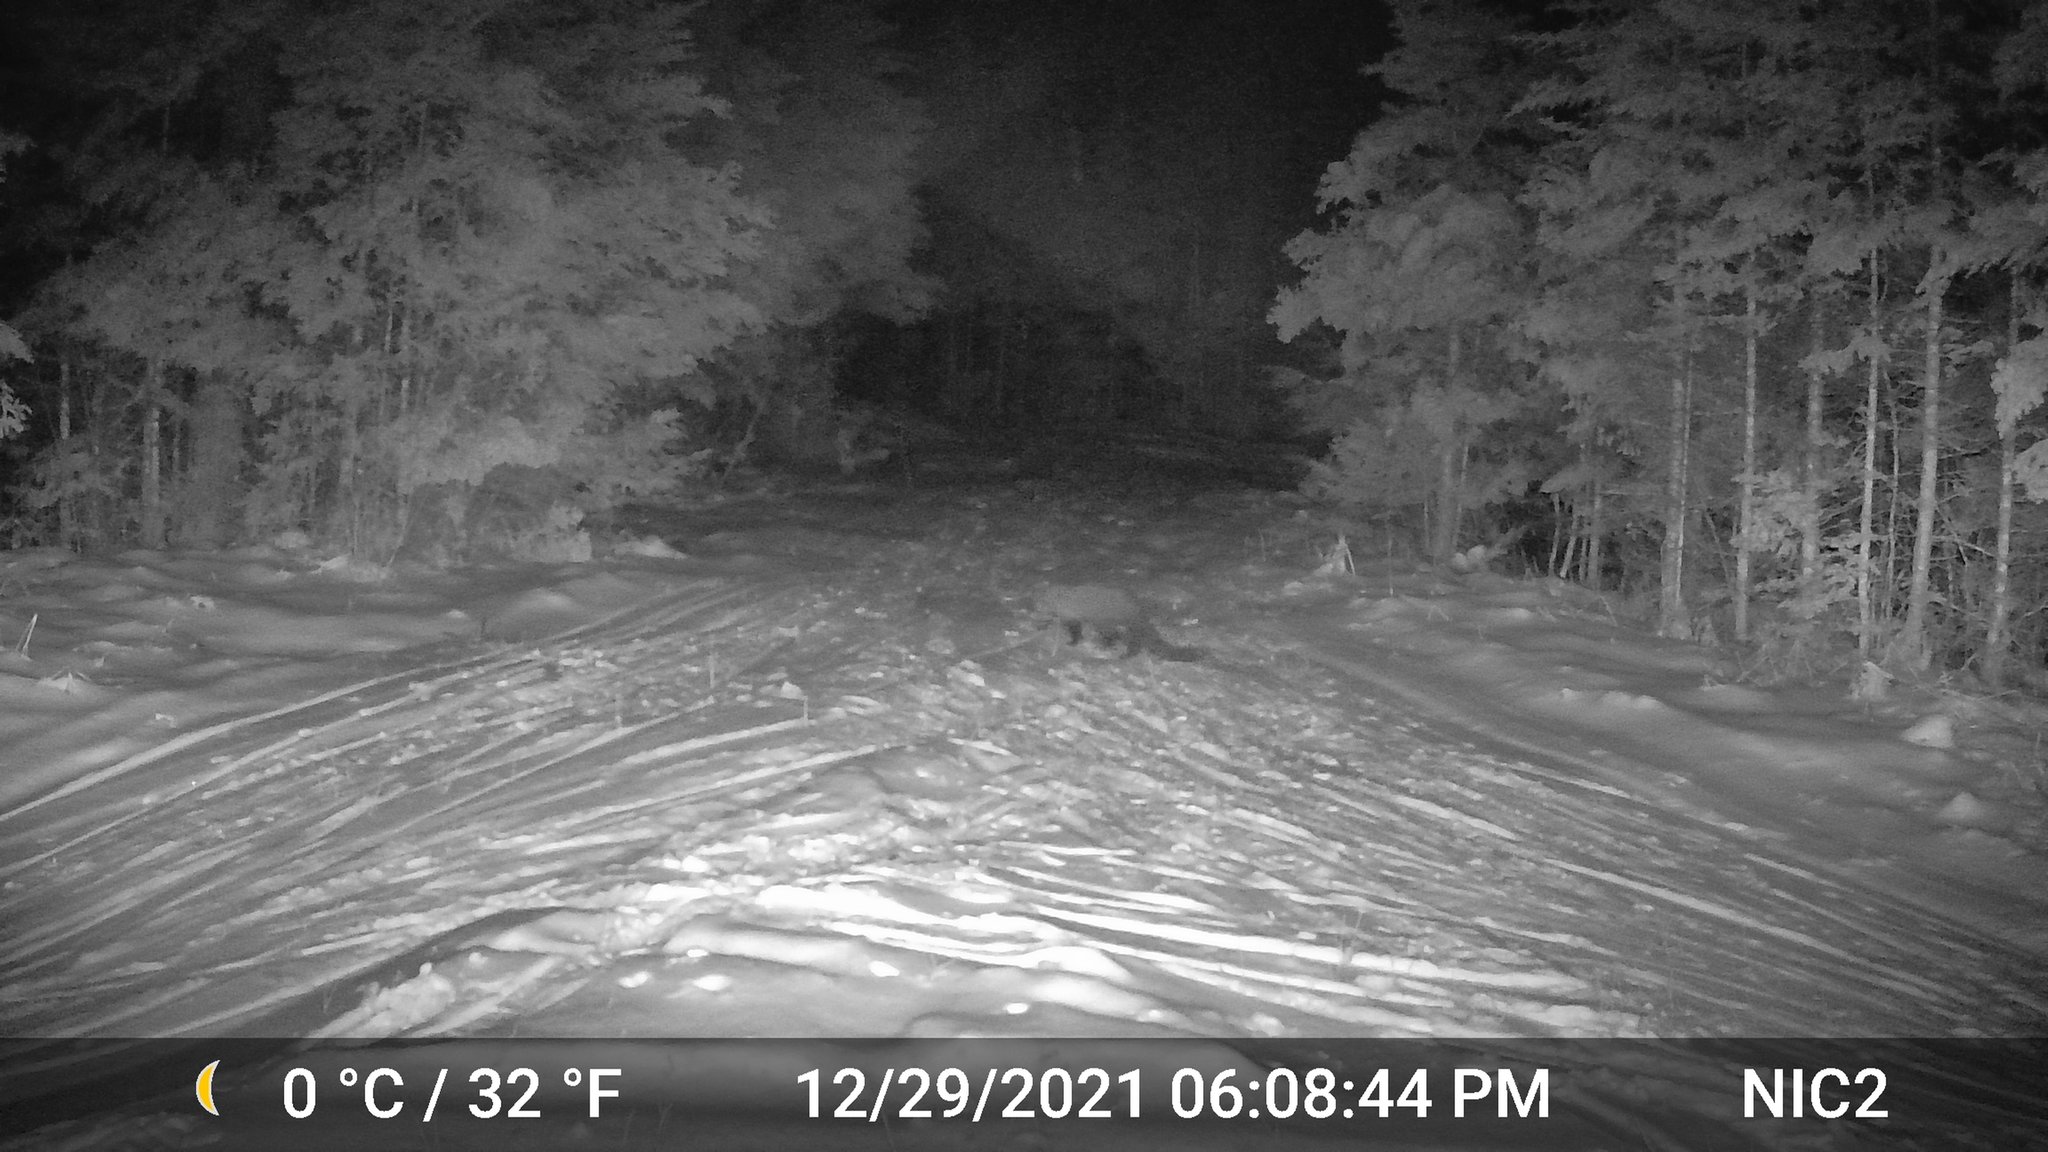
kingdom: Animalia
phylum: Chordata
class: Mammalia
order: Carnivora
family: Mustelidae
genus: Pekania
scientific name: Pekania pennanti
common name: Fisher
